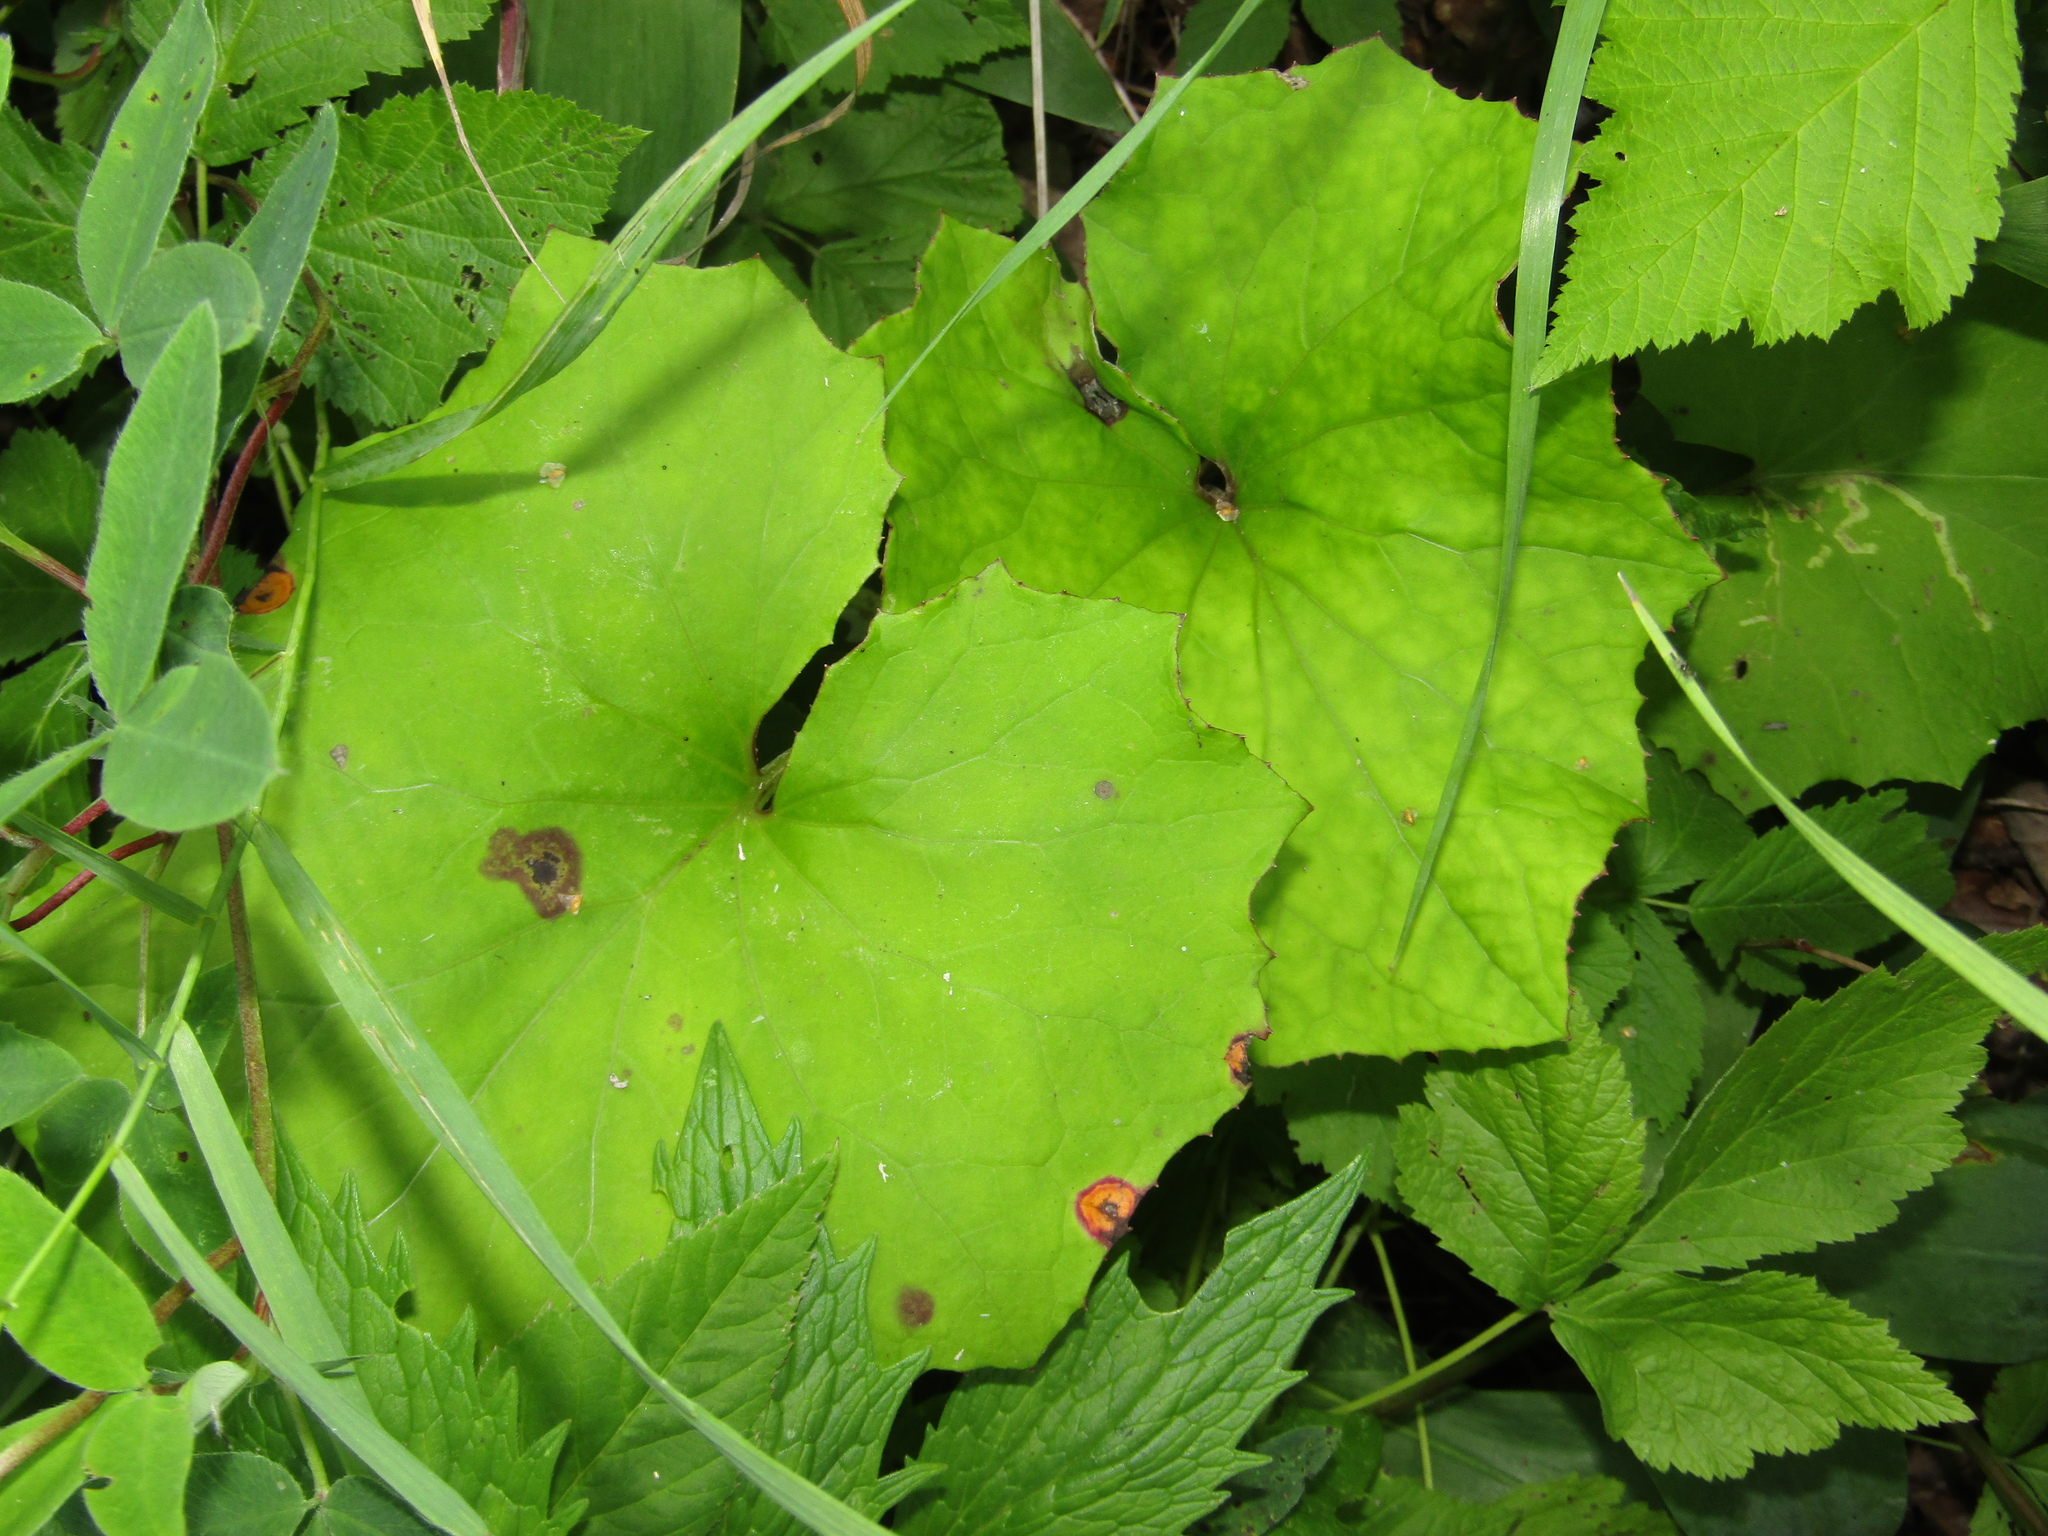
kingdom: Plantae
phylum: Tracheophyta
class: Magnoliopsida
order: Asterales
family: Asteraceae
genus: Tussilago
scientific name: Tussilago farfara
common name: Coltsfoot
